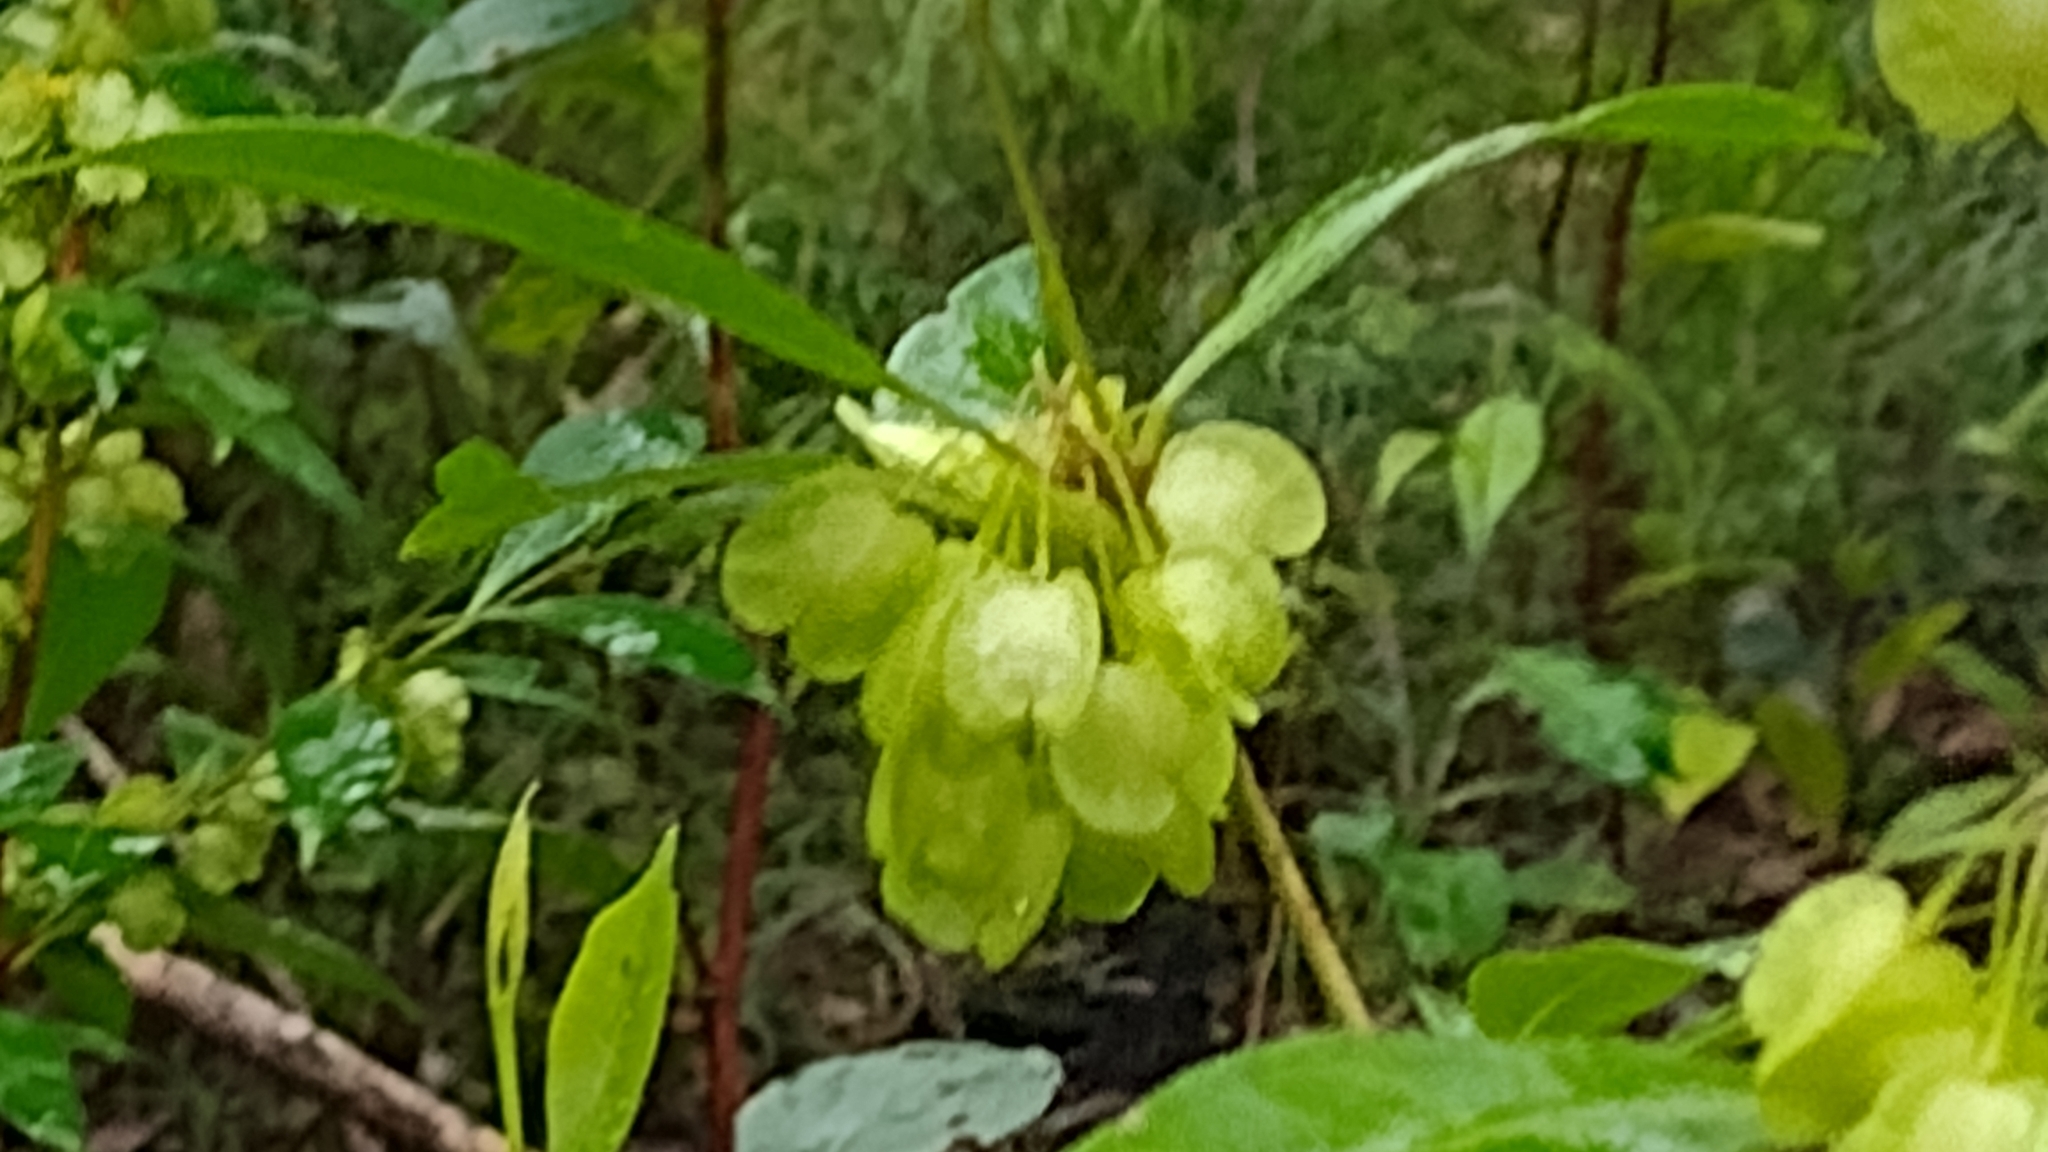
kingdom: Plantae
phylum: Tracheophyta
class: Magnoliopsida
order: Sapindales
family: Sapindaceae
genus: Dodonaea
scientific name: Dodonaea triquetra
